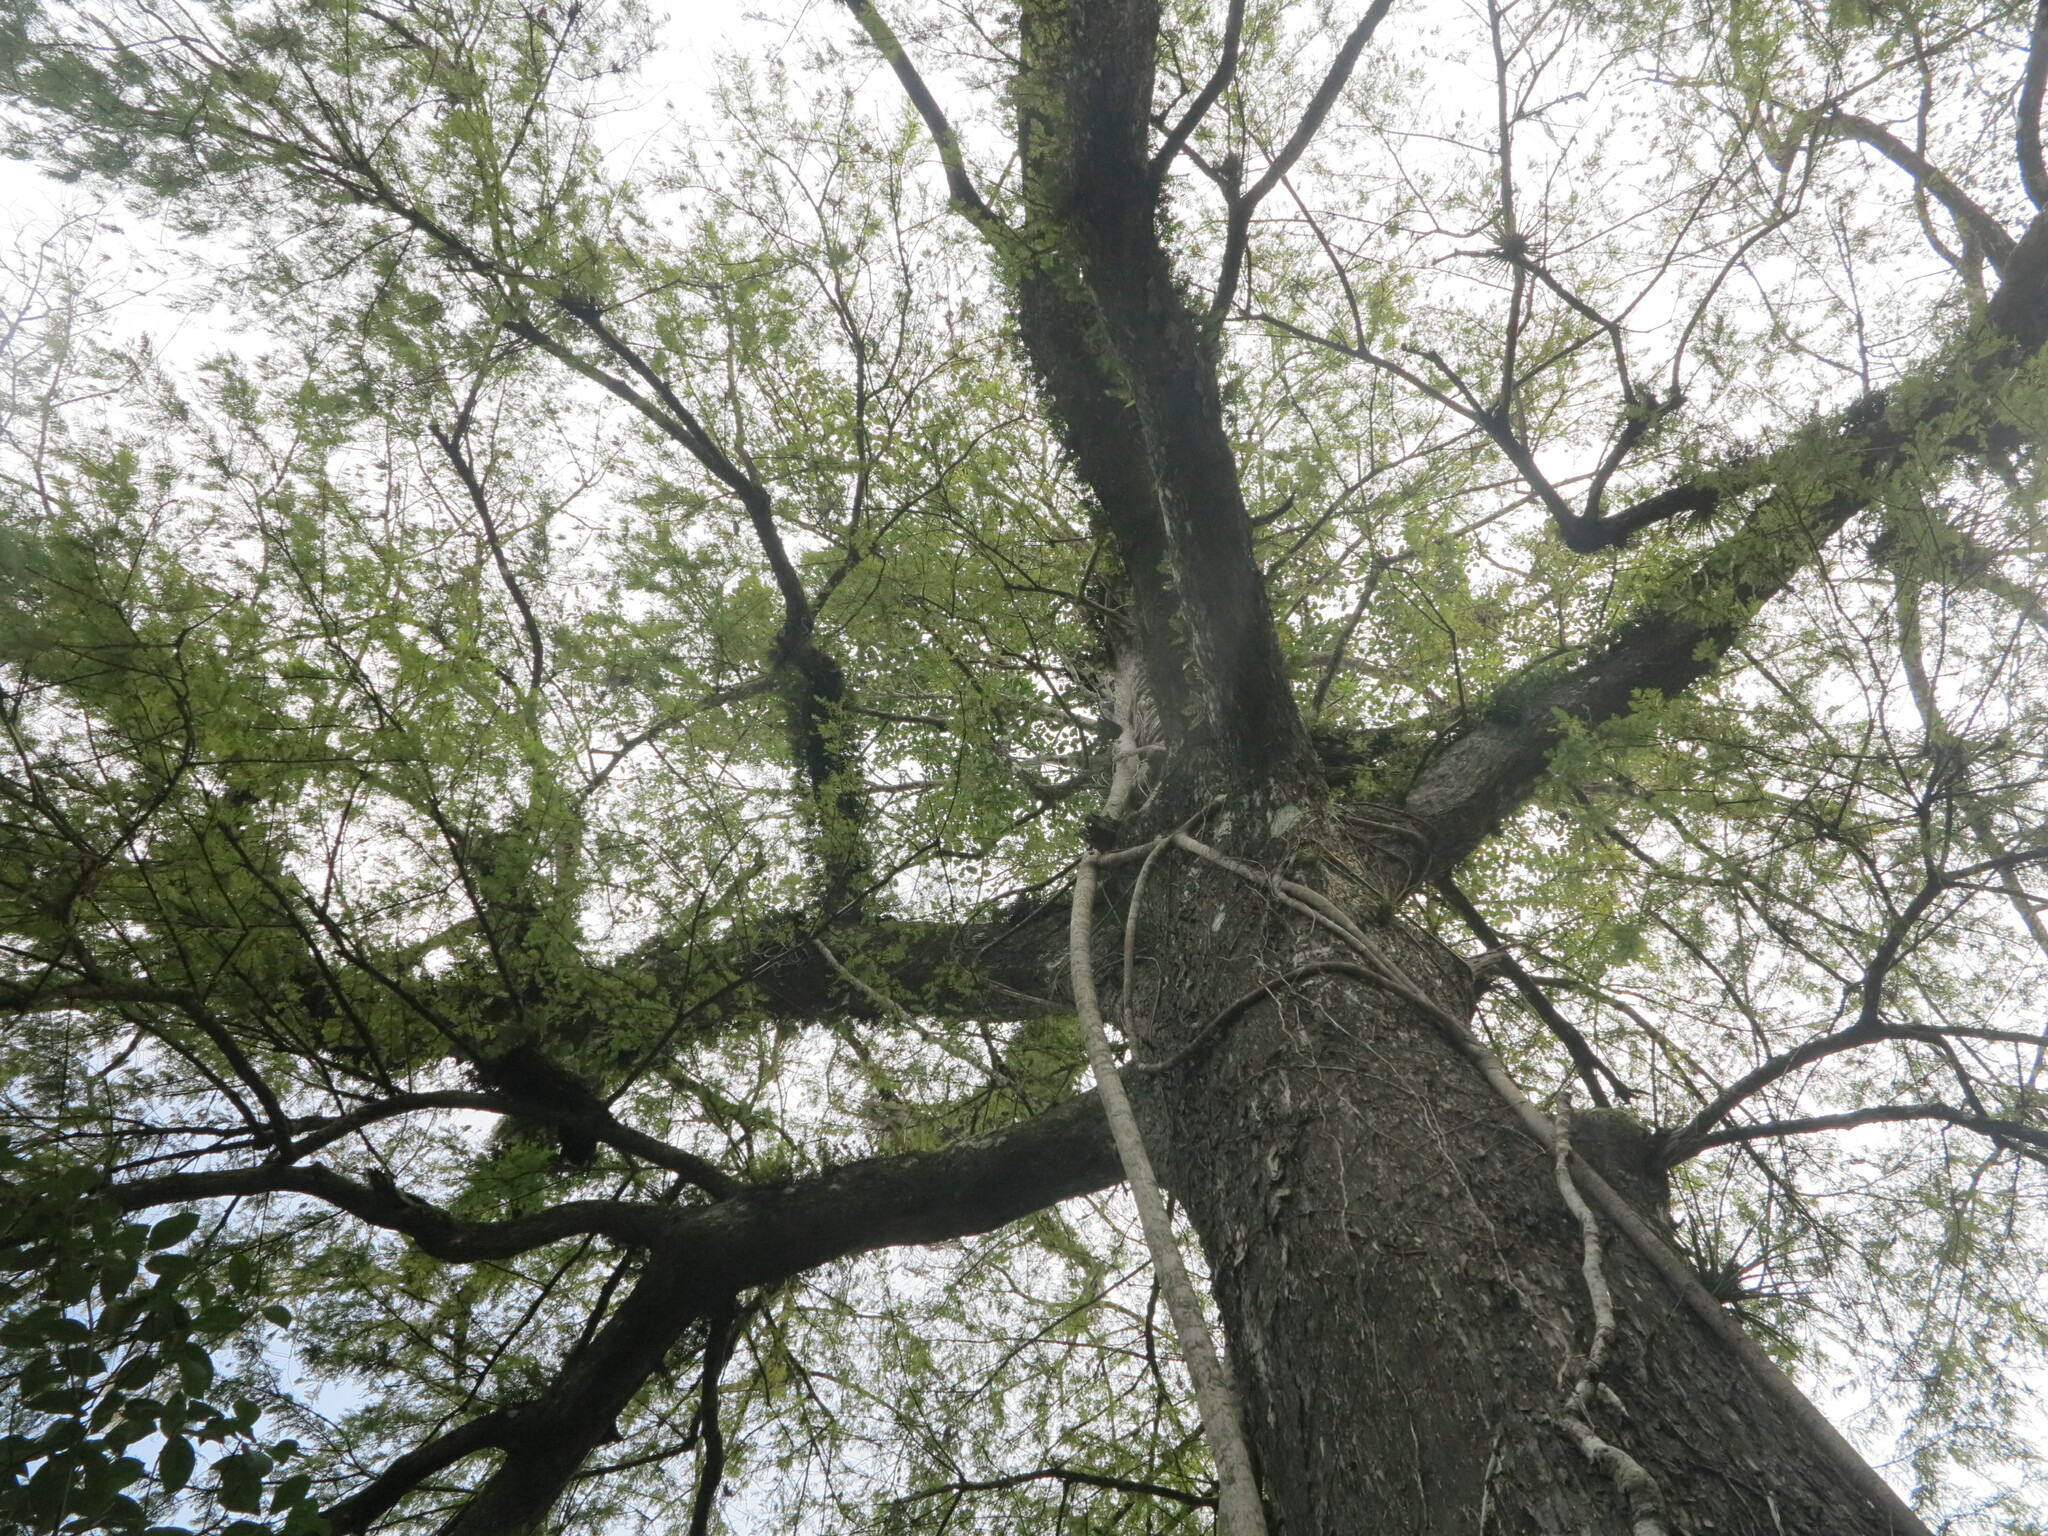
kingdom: Plantae
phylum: Tracheophyta
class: Pinopsida
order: Pinales
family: Cupressaceae
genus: Taxodium
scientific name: Taxodium distichum
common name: Bald cypress
